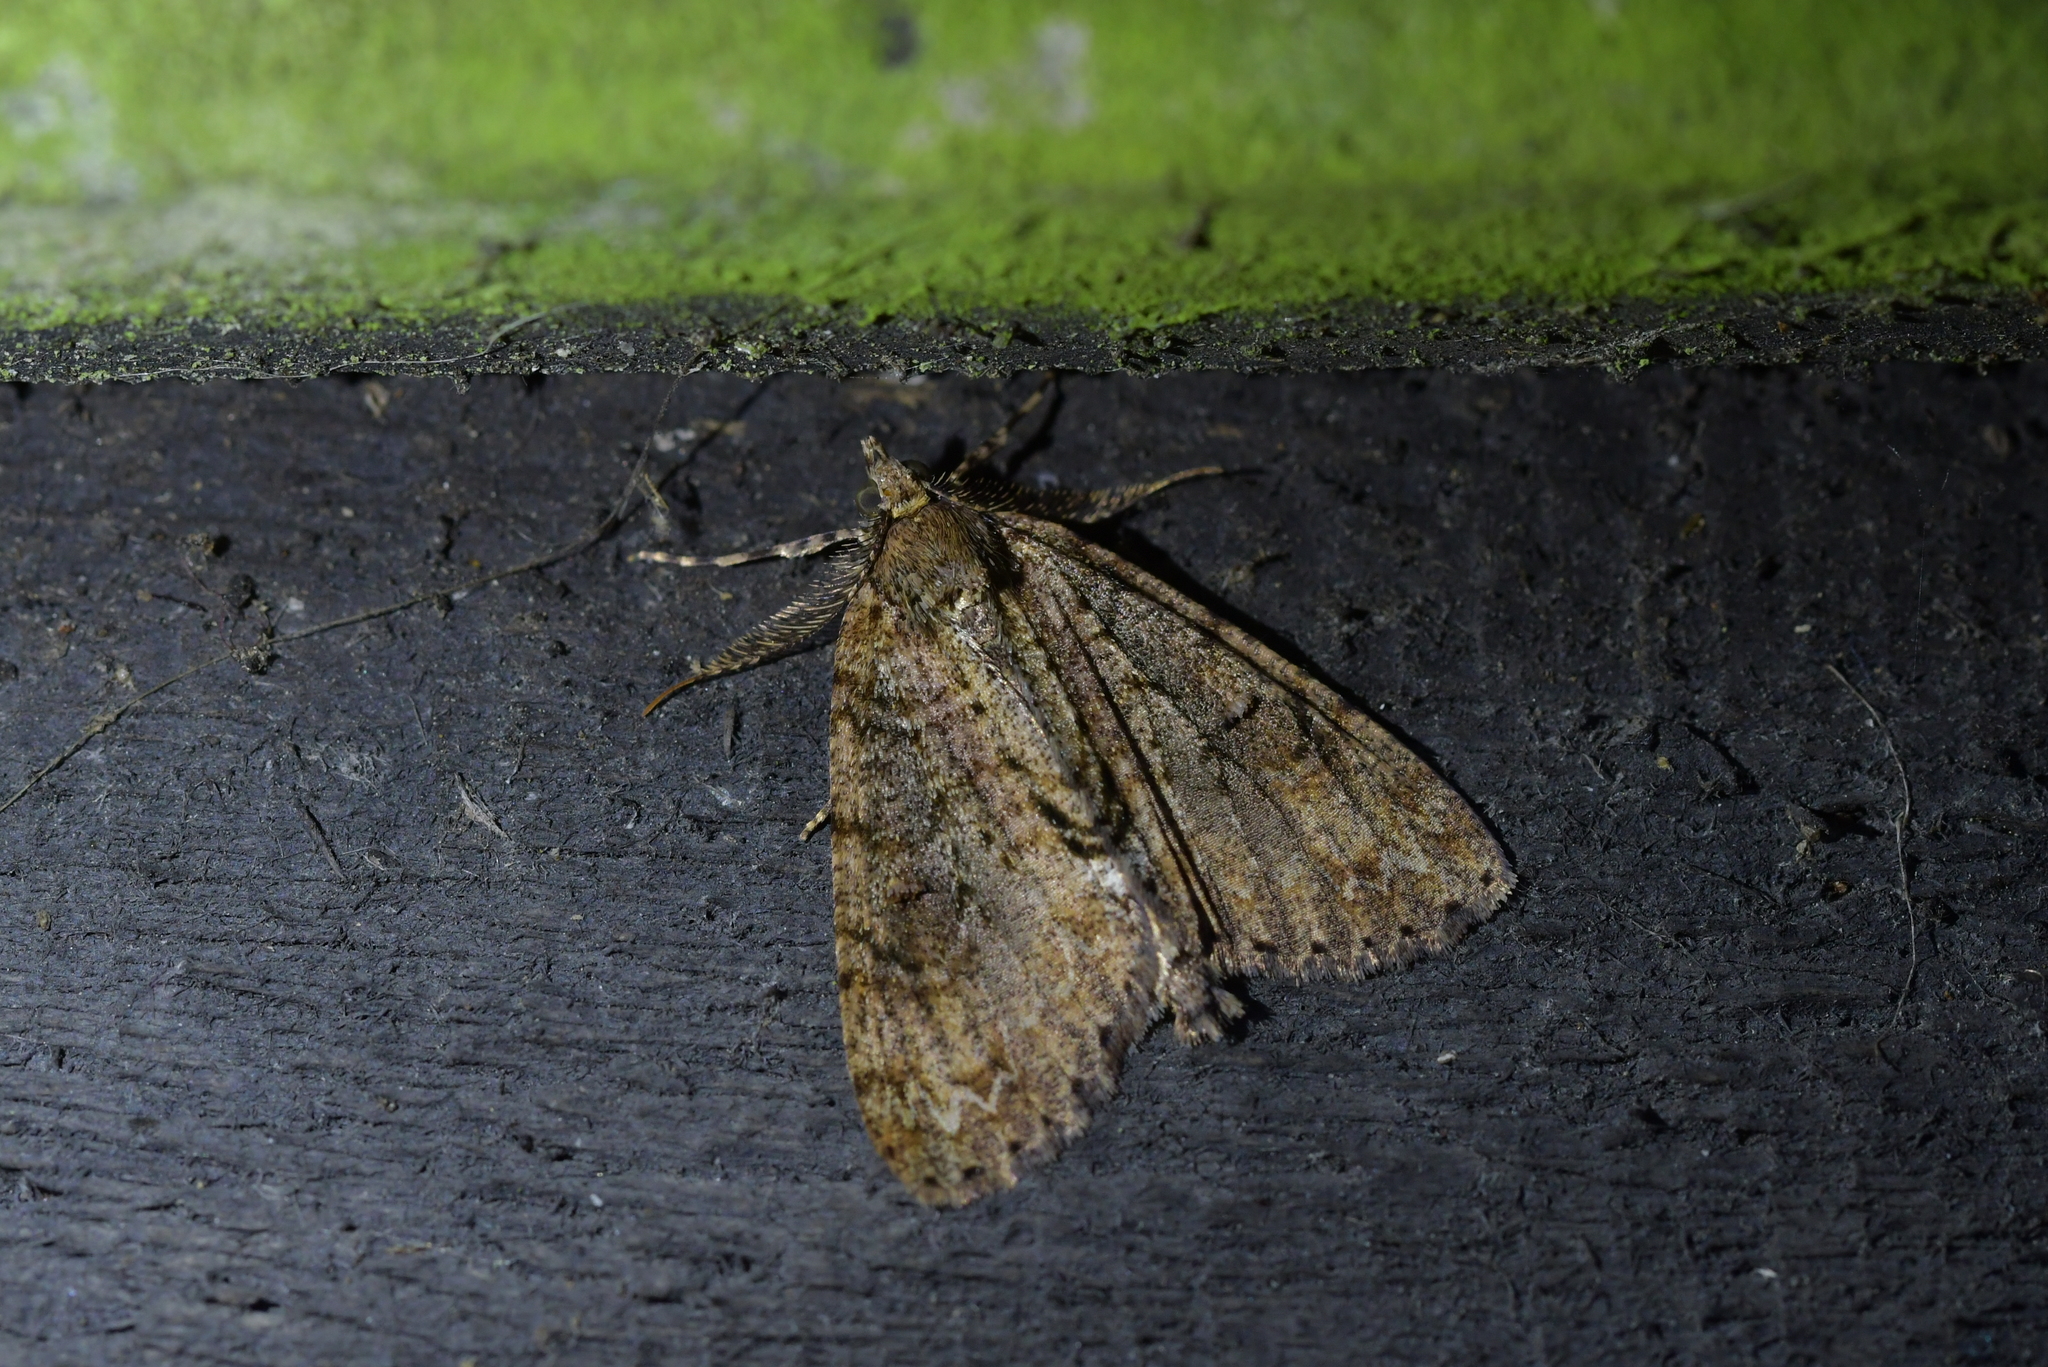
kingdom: Animalia
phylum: Arthropoda
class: Insecta
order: Lepidoptera
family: Geometridae
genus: Pseudocoremia
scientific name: Pseudocoremia suavis
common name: Common forest looper
